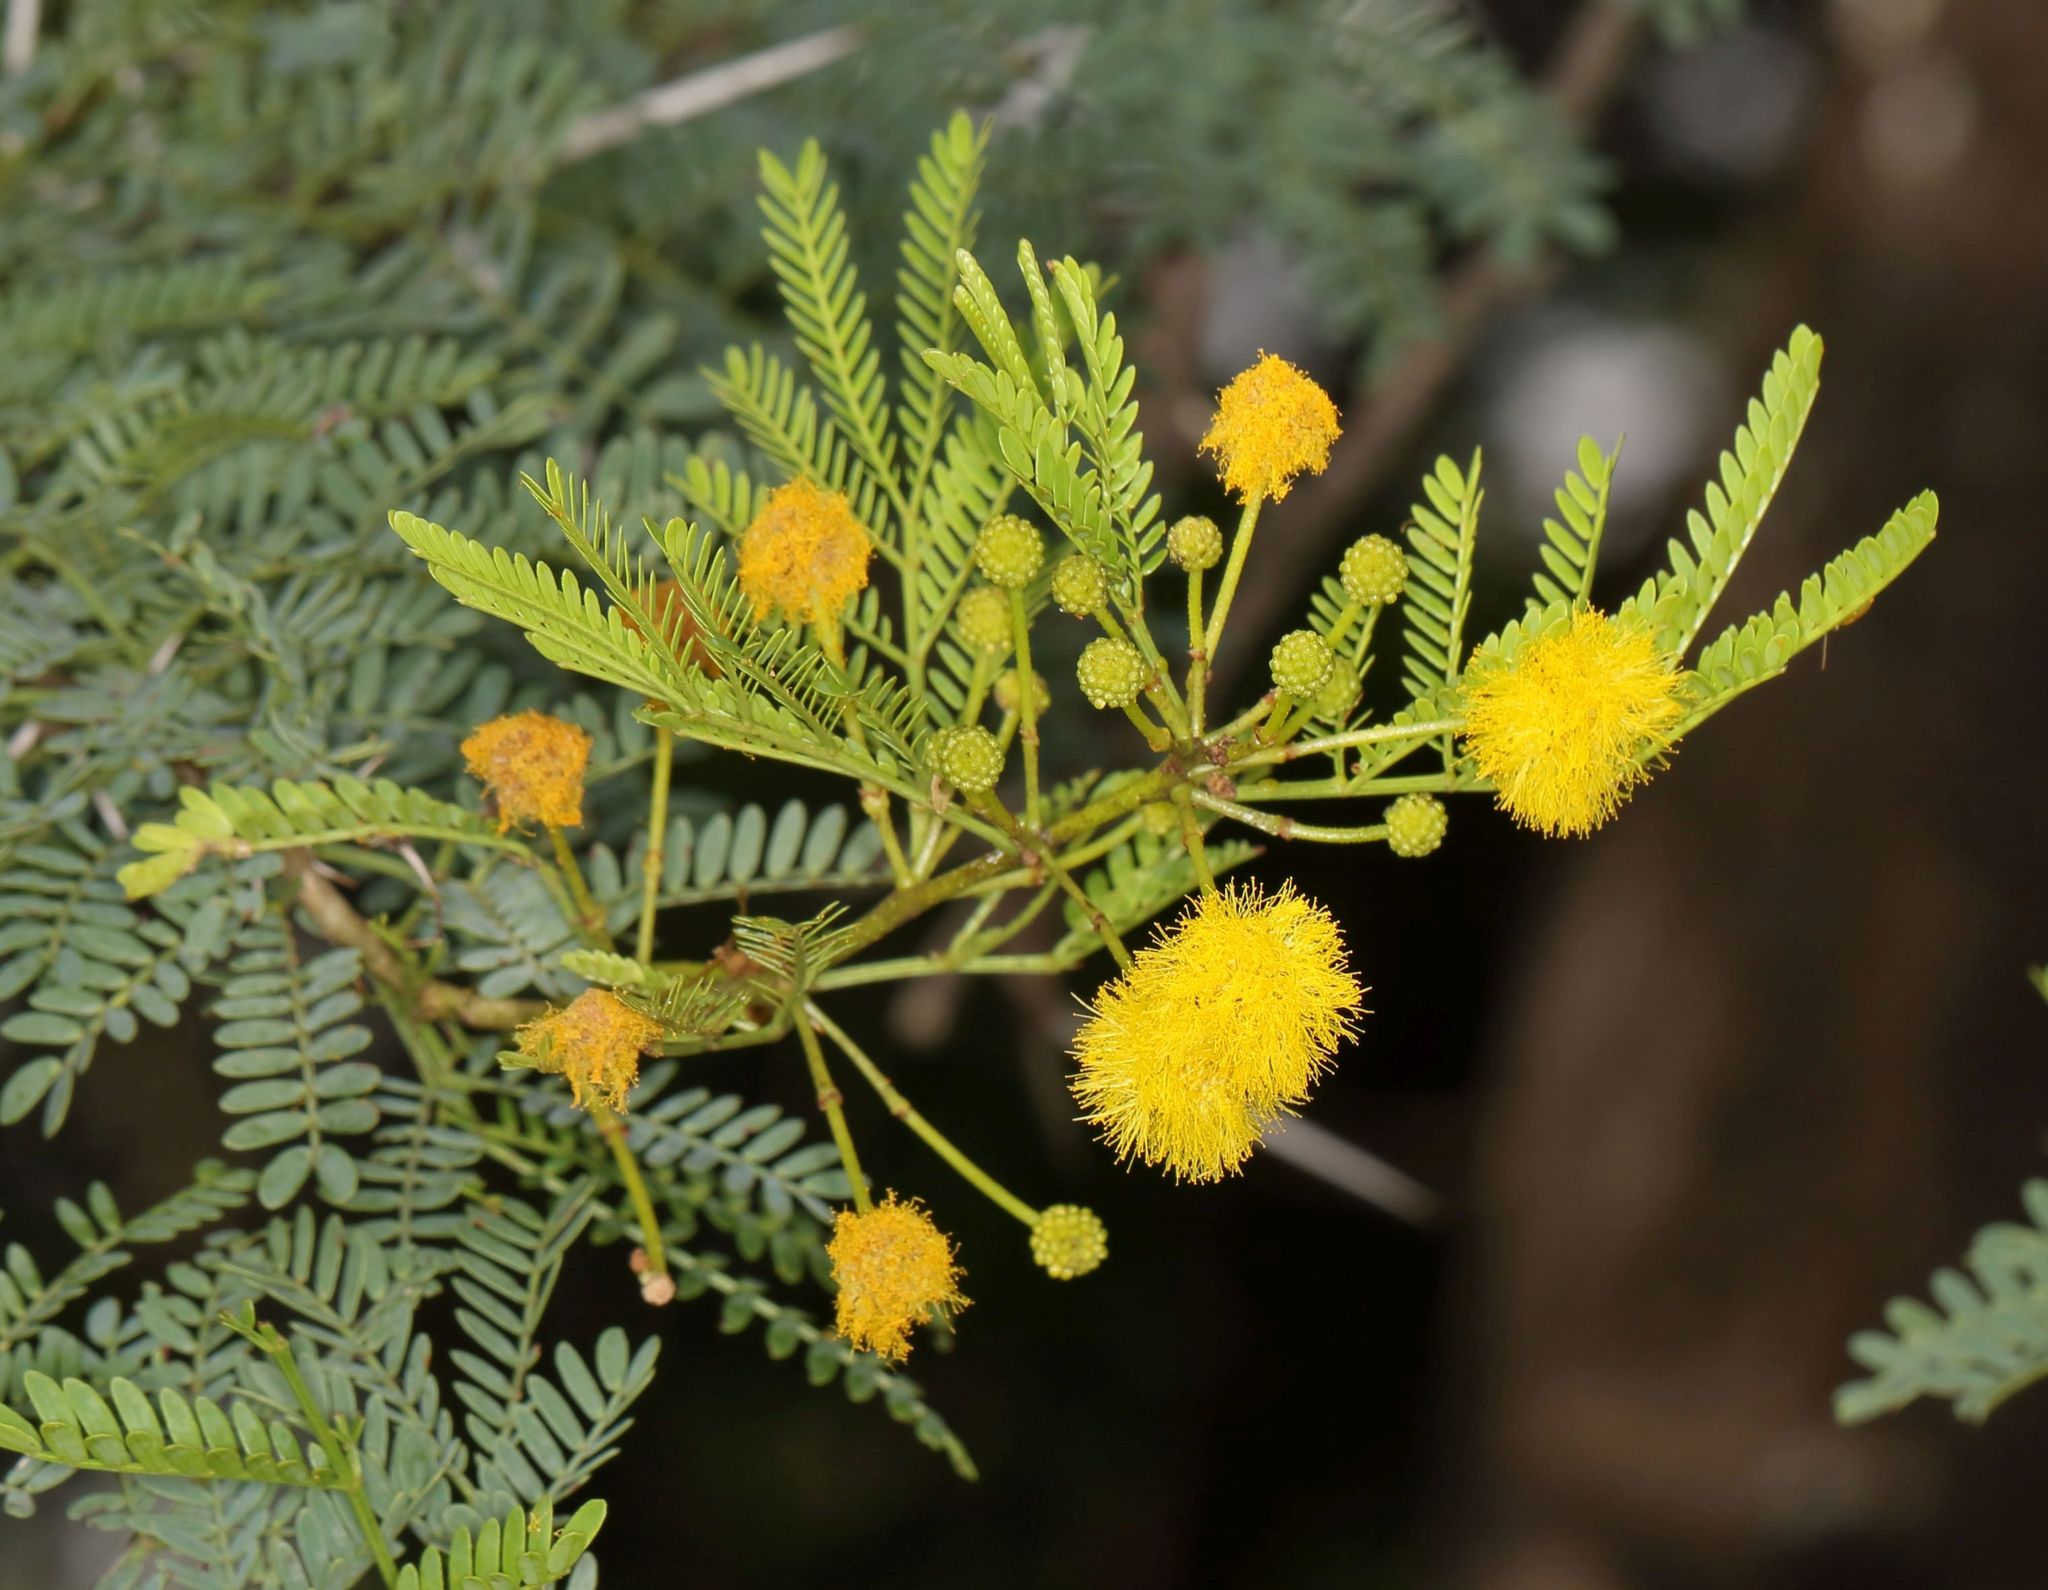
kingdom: Plantae
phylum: Tracheophyta
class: Magnoliopsida
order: Fabales
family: Fabaceae
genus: Vachellia
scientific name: Vachellia karroo
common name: Sweet thorn
